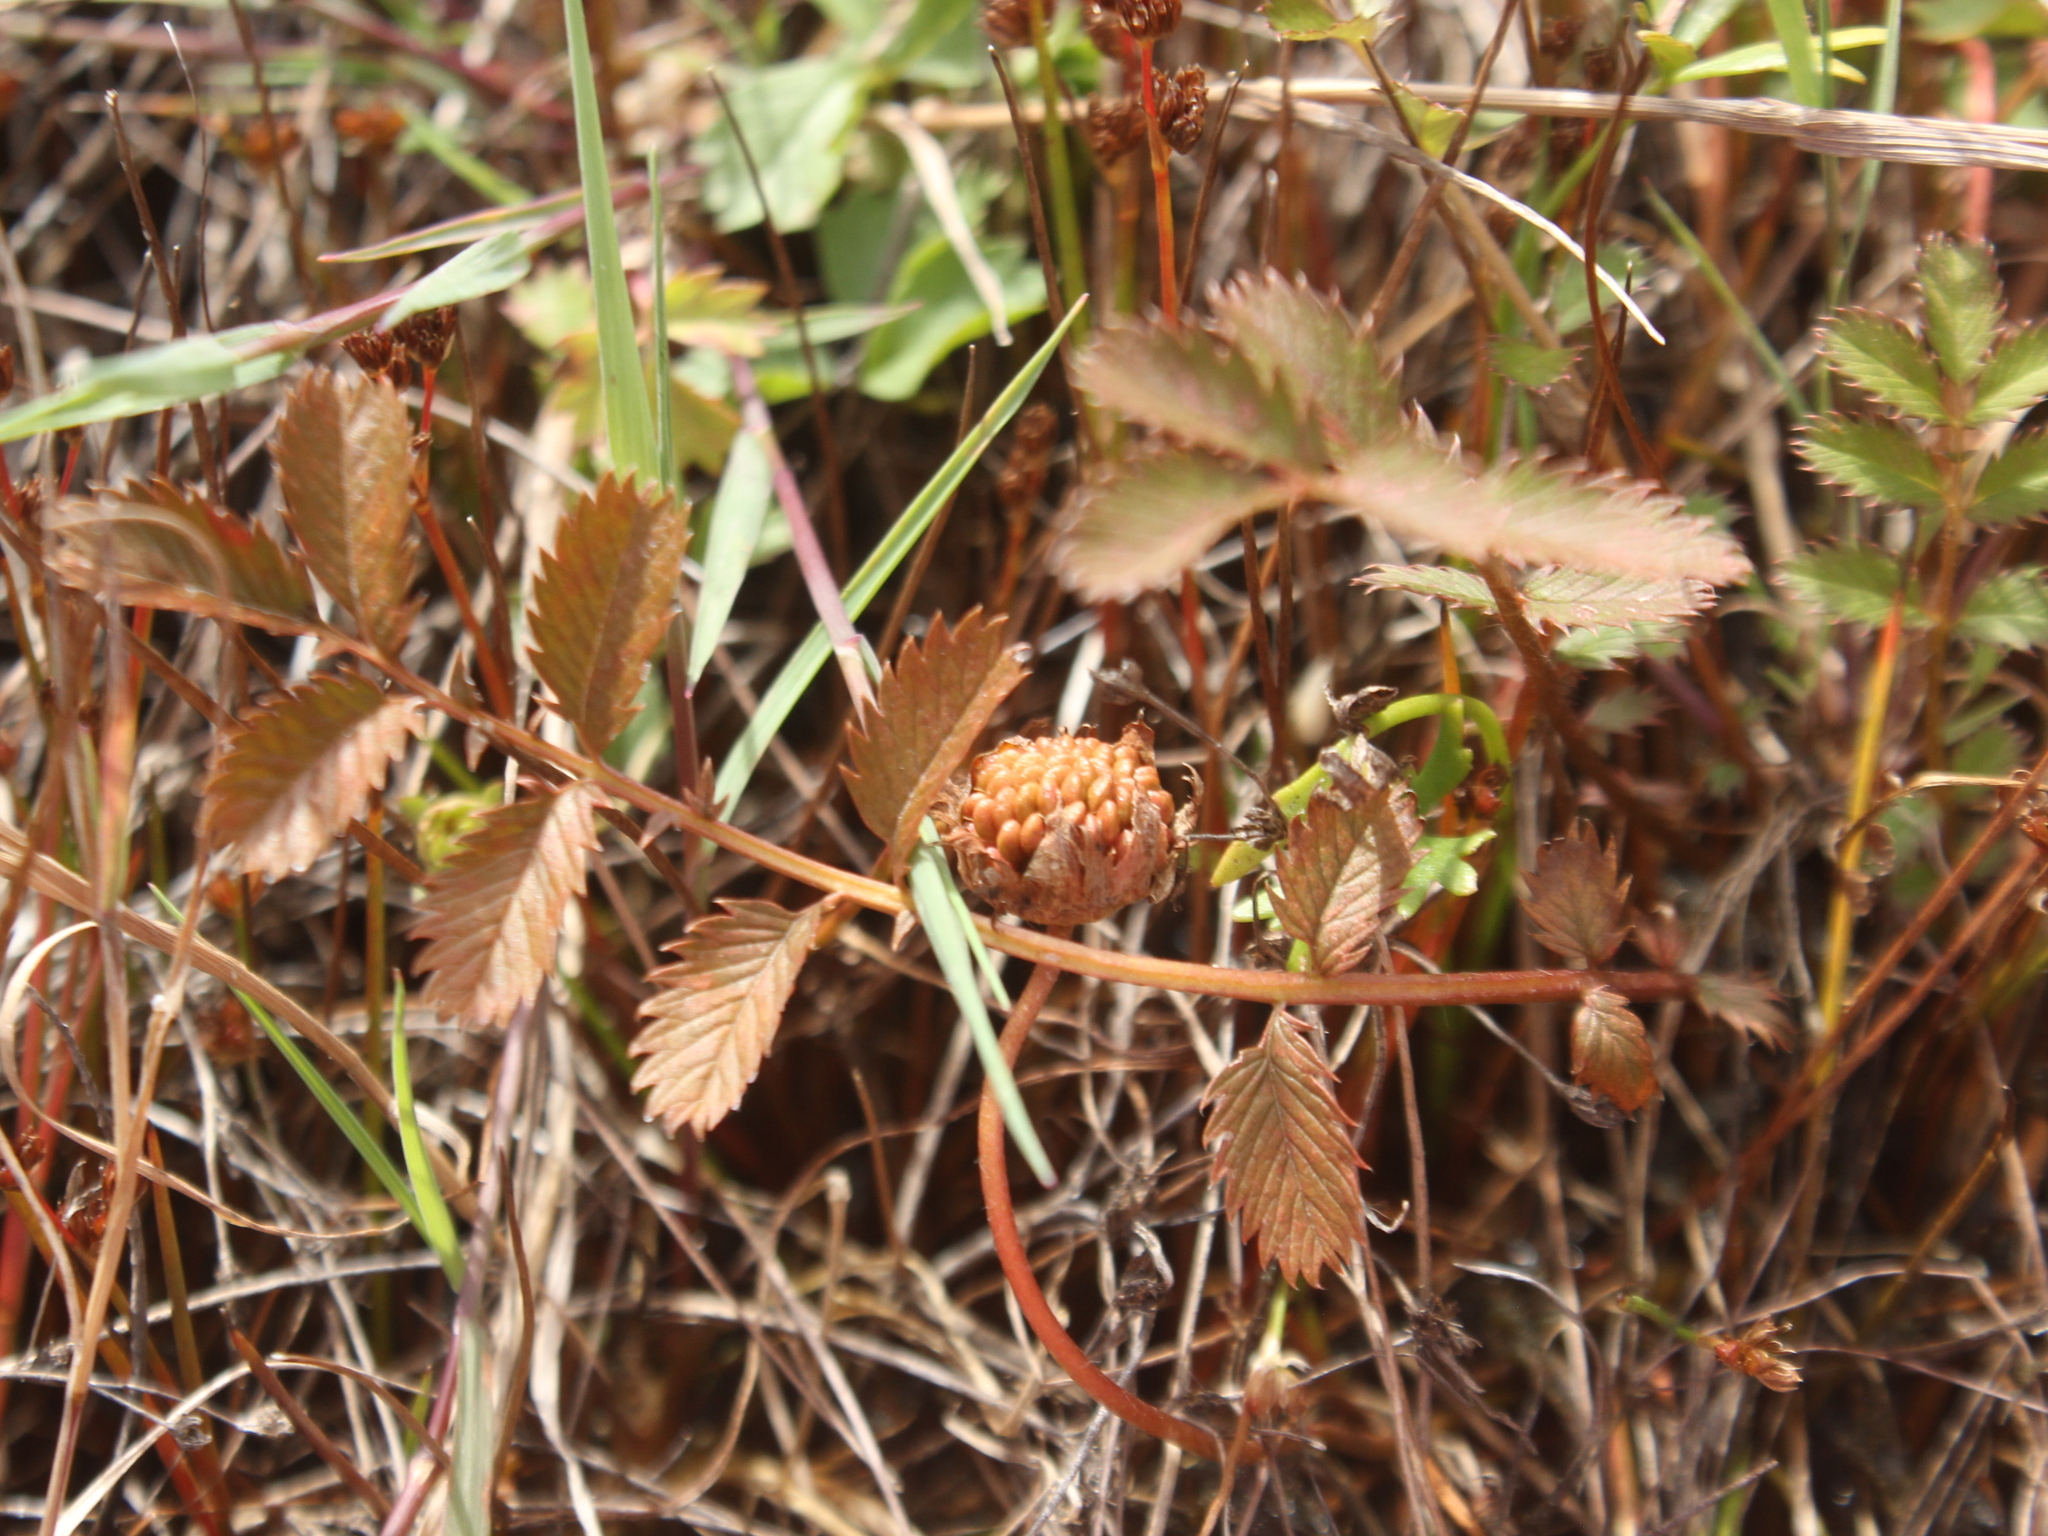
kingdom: Plantae
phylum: Tracheophyta
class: Magnoliopsida
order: Rosales
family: Rosaceae
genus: Argentina
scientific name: Argentina anserinoides
